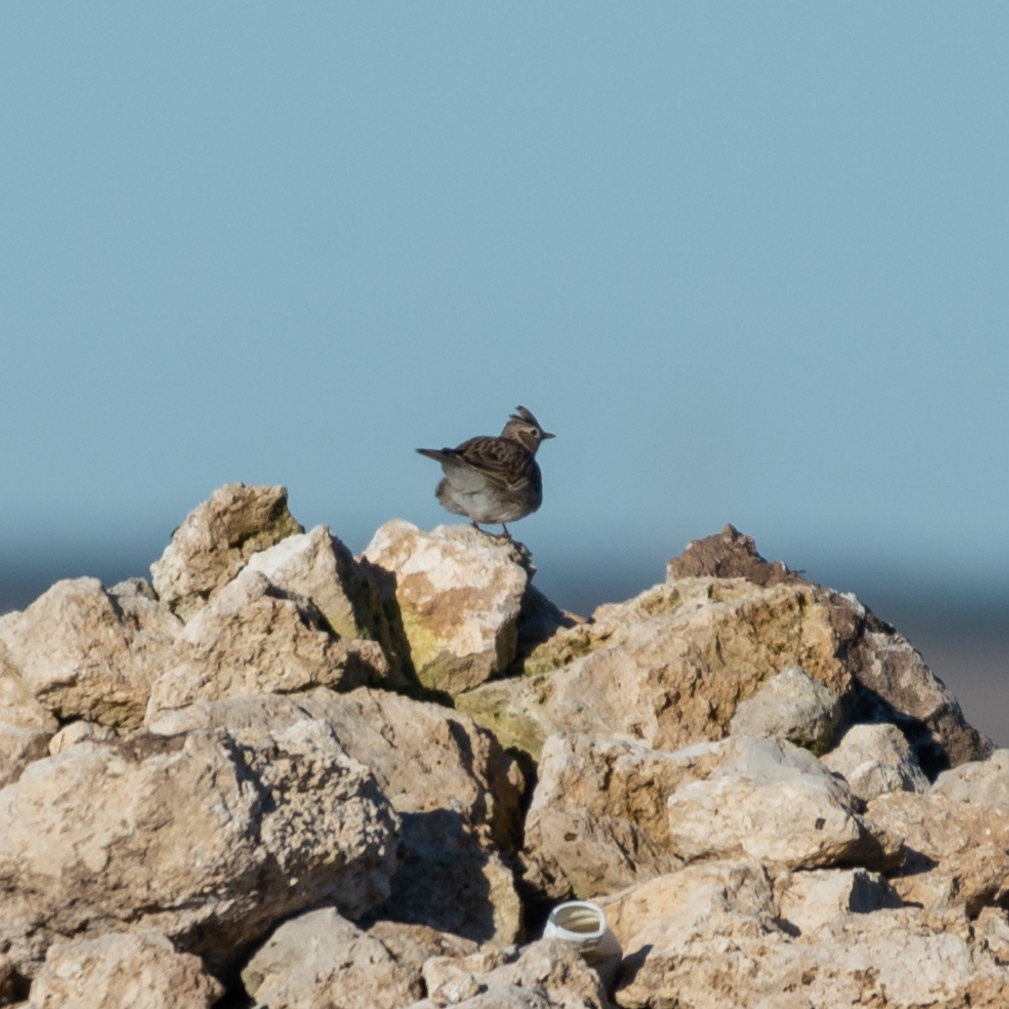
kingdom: Animalia
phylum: Chordata
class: Aves
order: Passeriformes
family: Alaudidae
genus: Alauda
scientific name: Alauda arvensis
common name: Eurasian skylark
